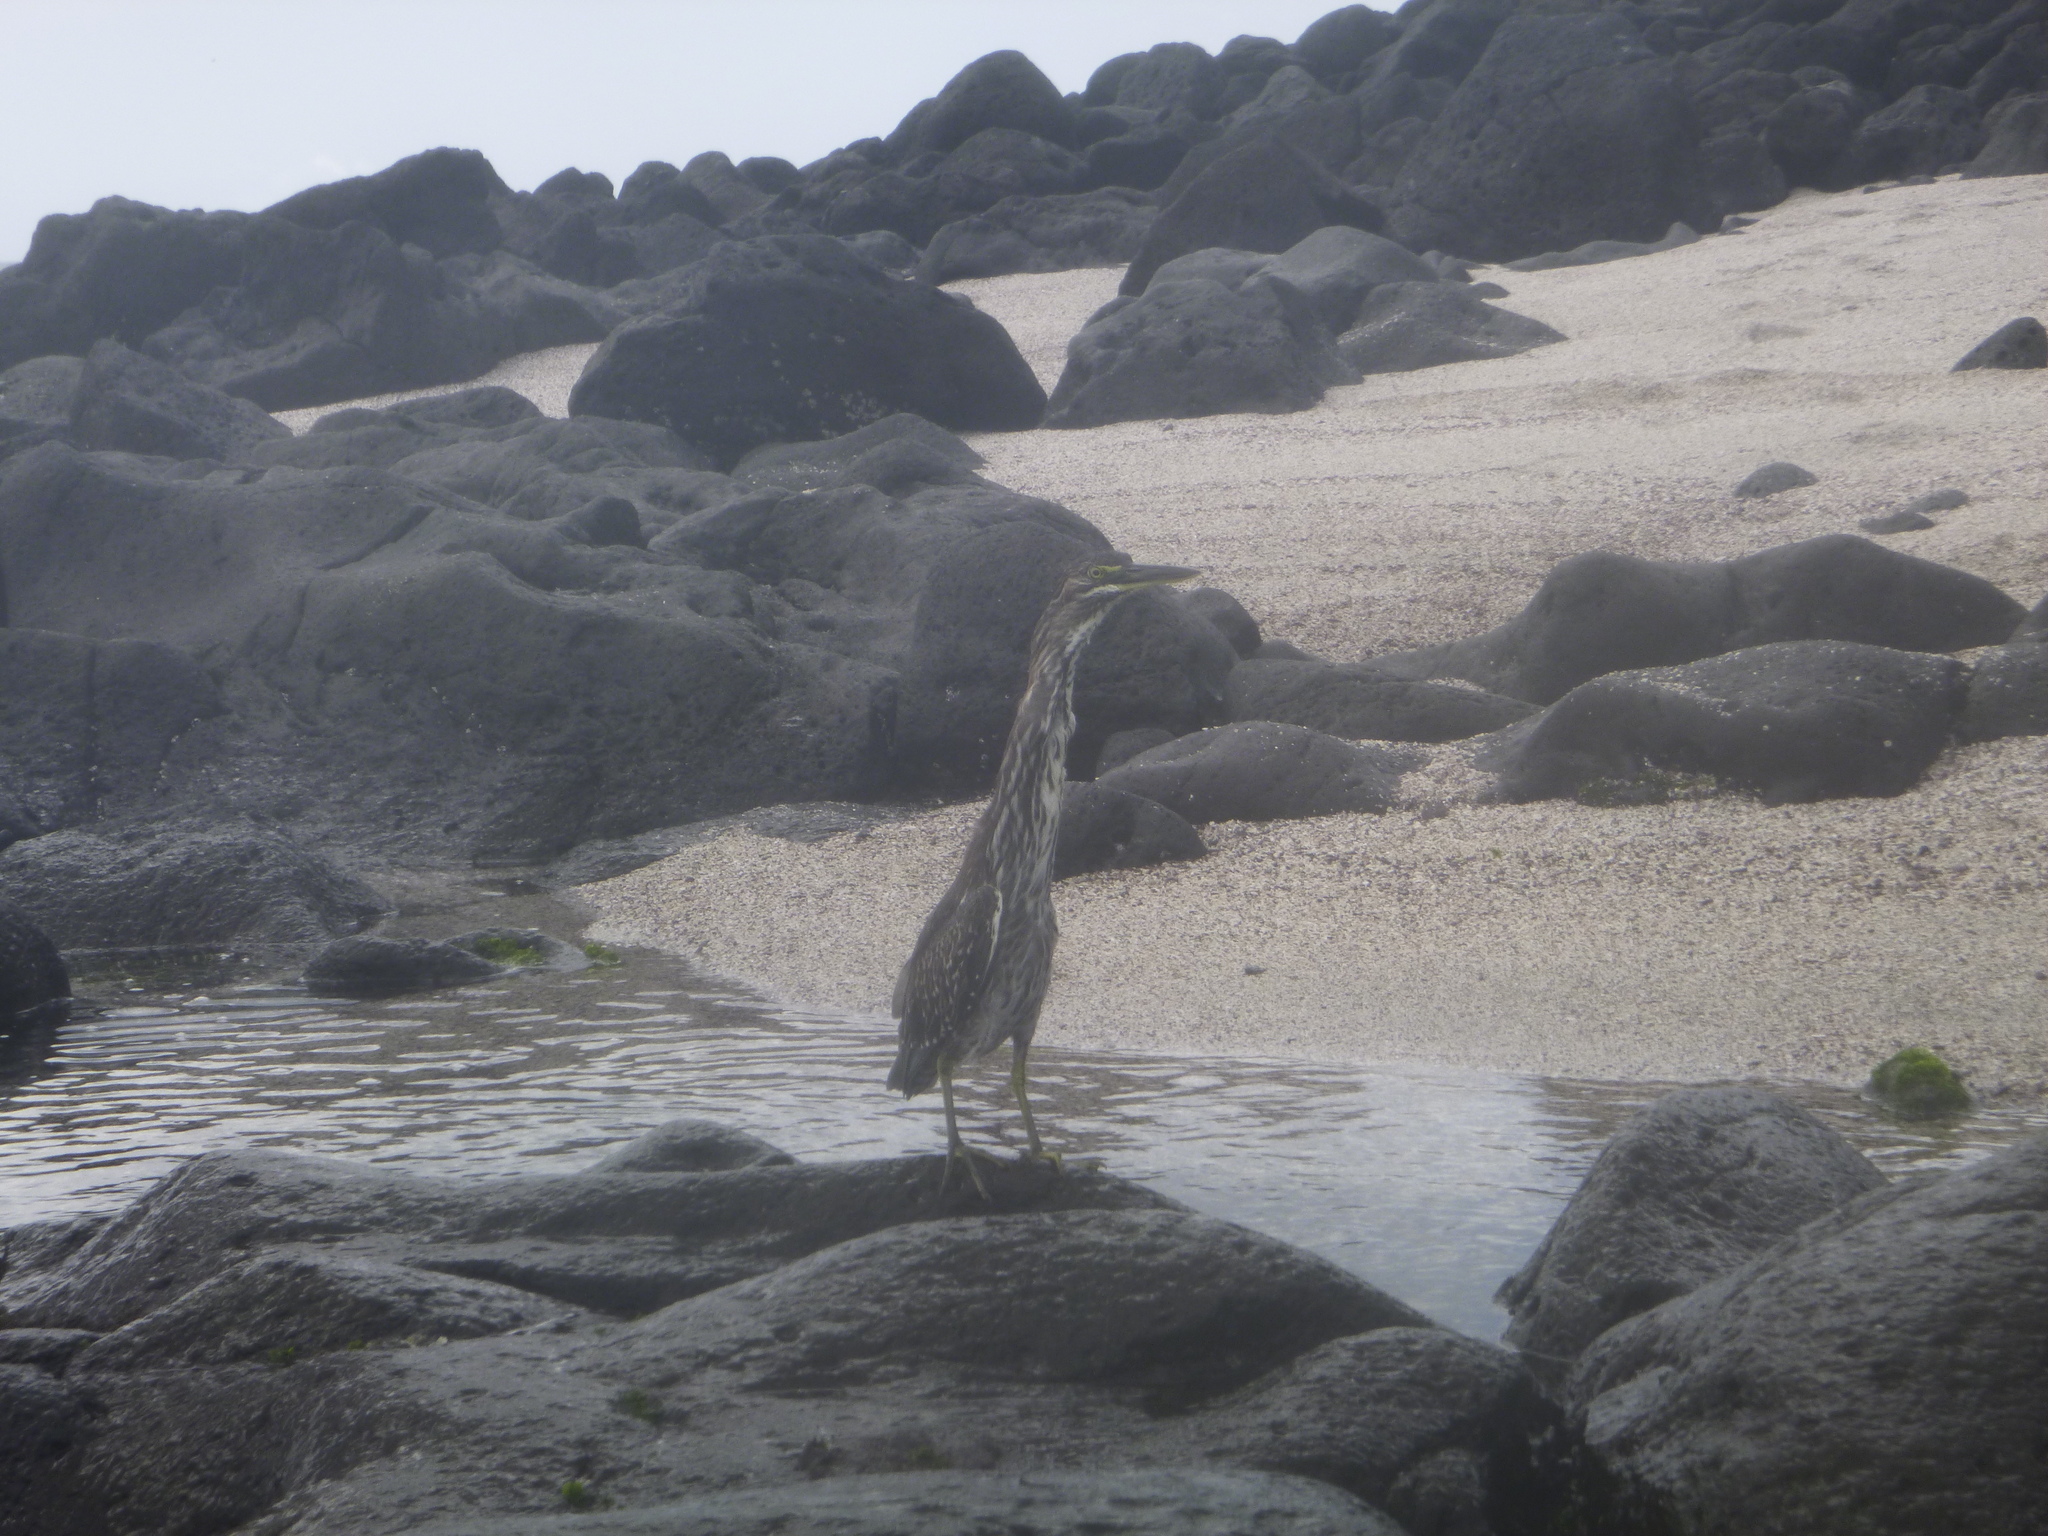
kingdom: Animalia
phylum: Chordata
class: Aves
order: Pelecaniformes
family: Ardeidae
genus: Butorides
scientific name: Butorides striata
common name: Striated heron
